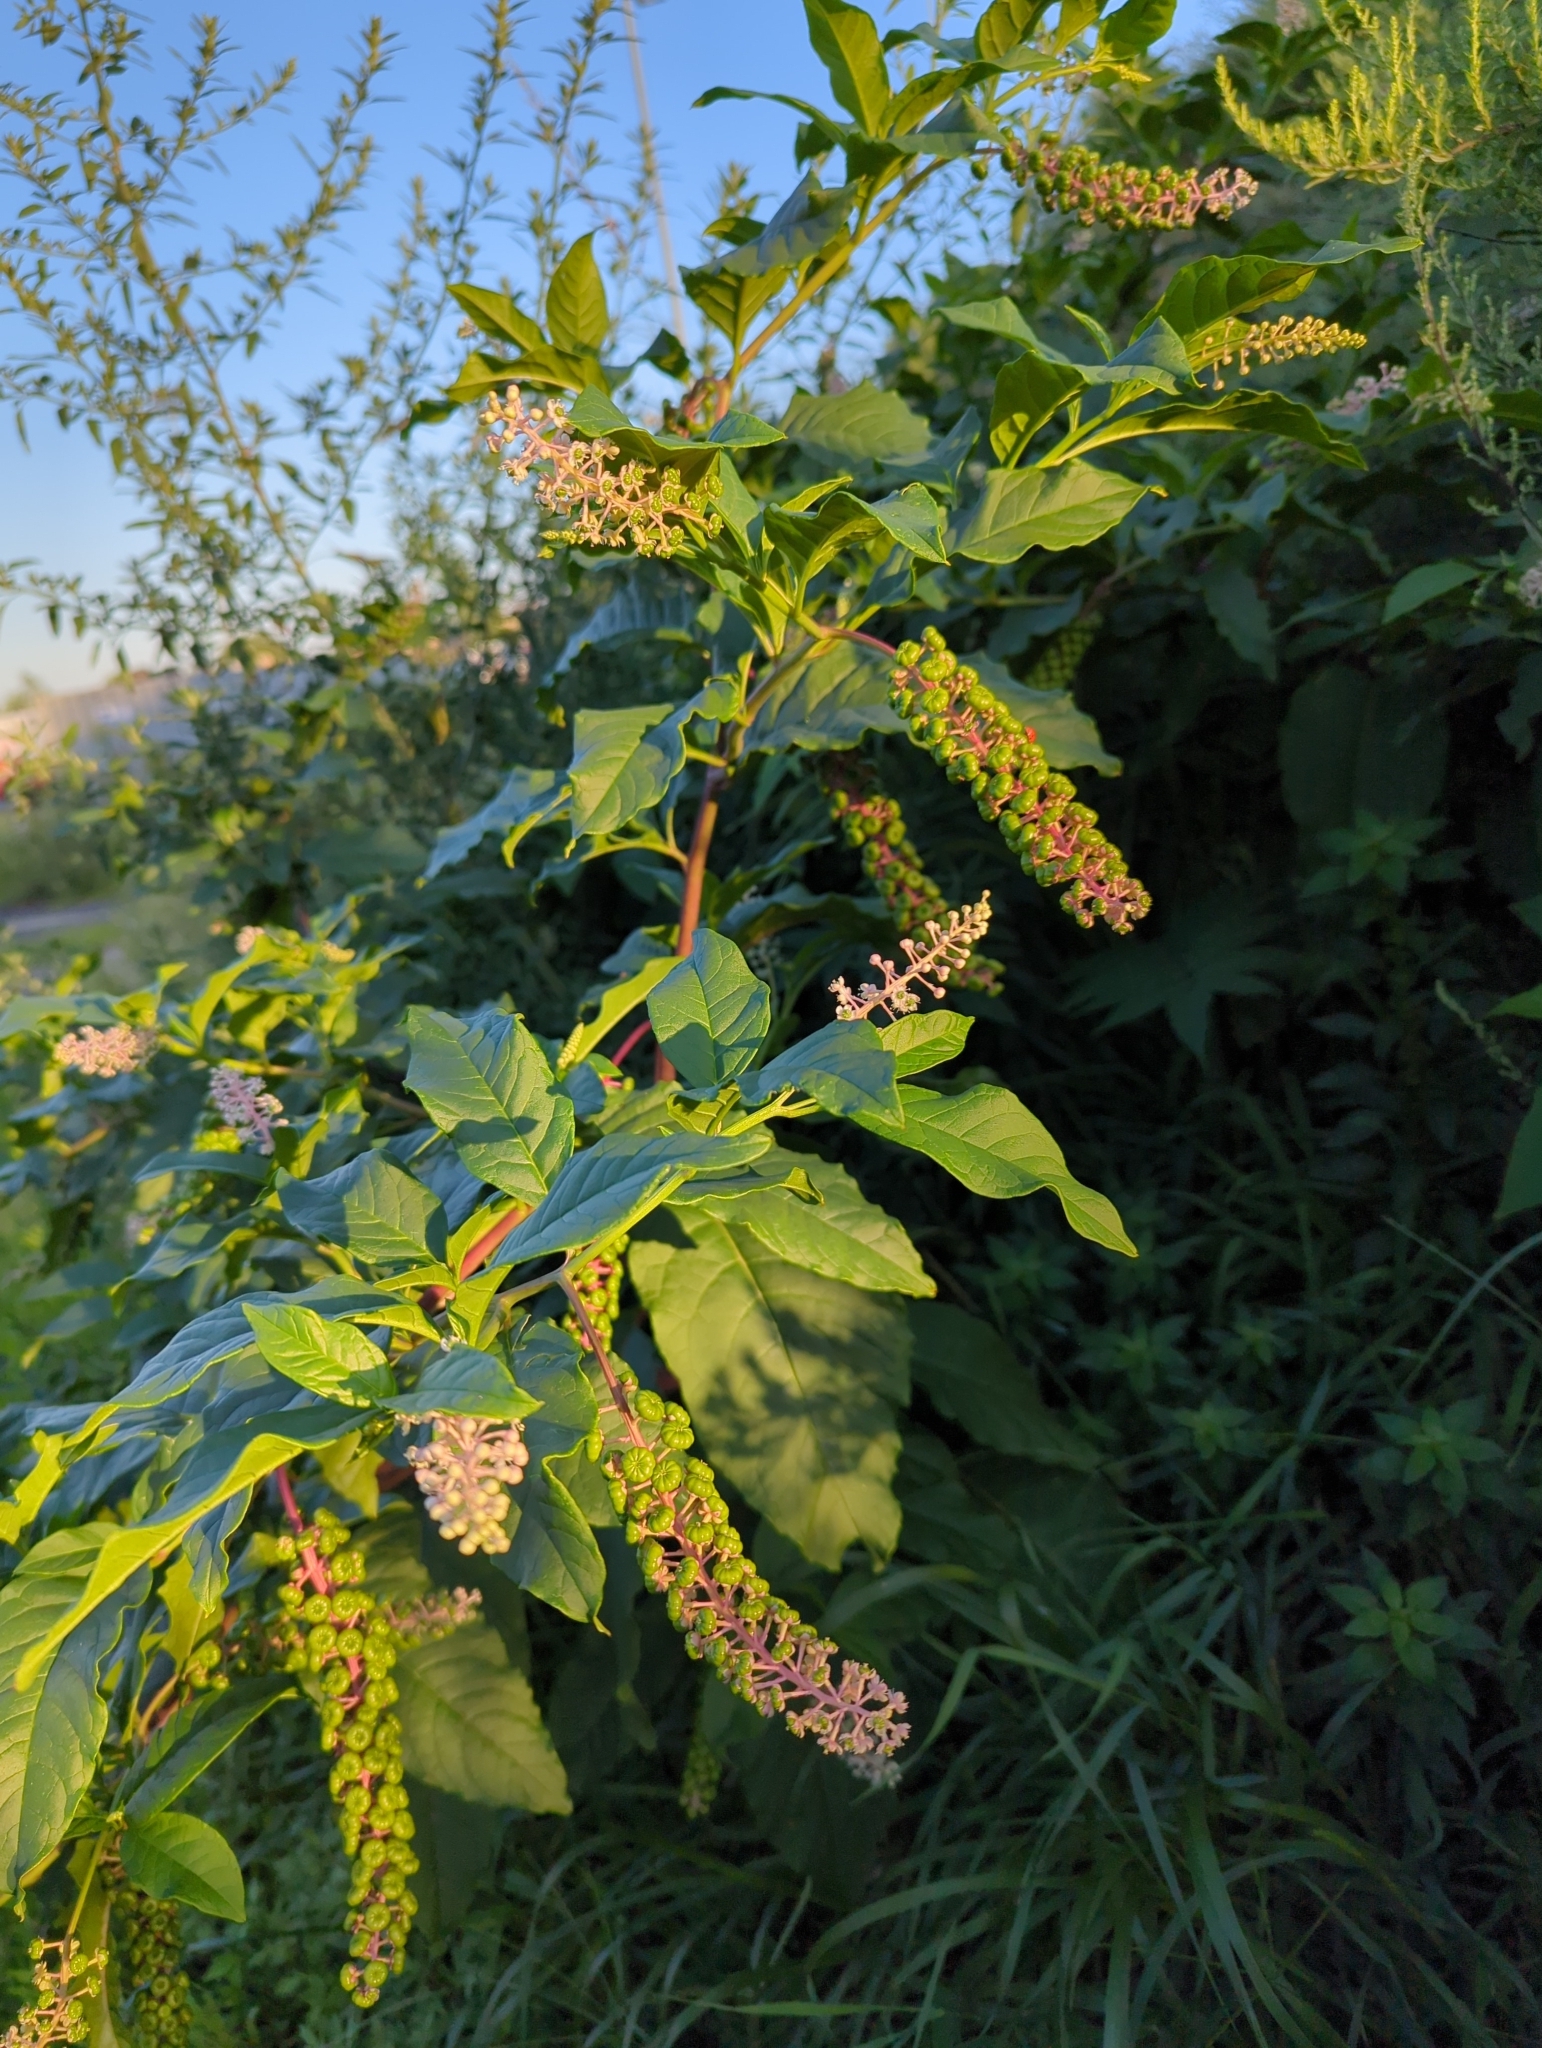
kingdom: Plantae
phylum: Tracheophyta
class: Magnoliopsida
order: Caryophyllales
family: Phytolaccaceae
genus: Phytolacca
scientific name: Phytolacca americana
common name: American pokeweed
